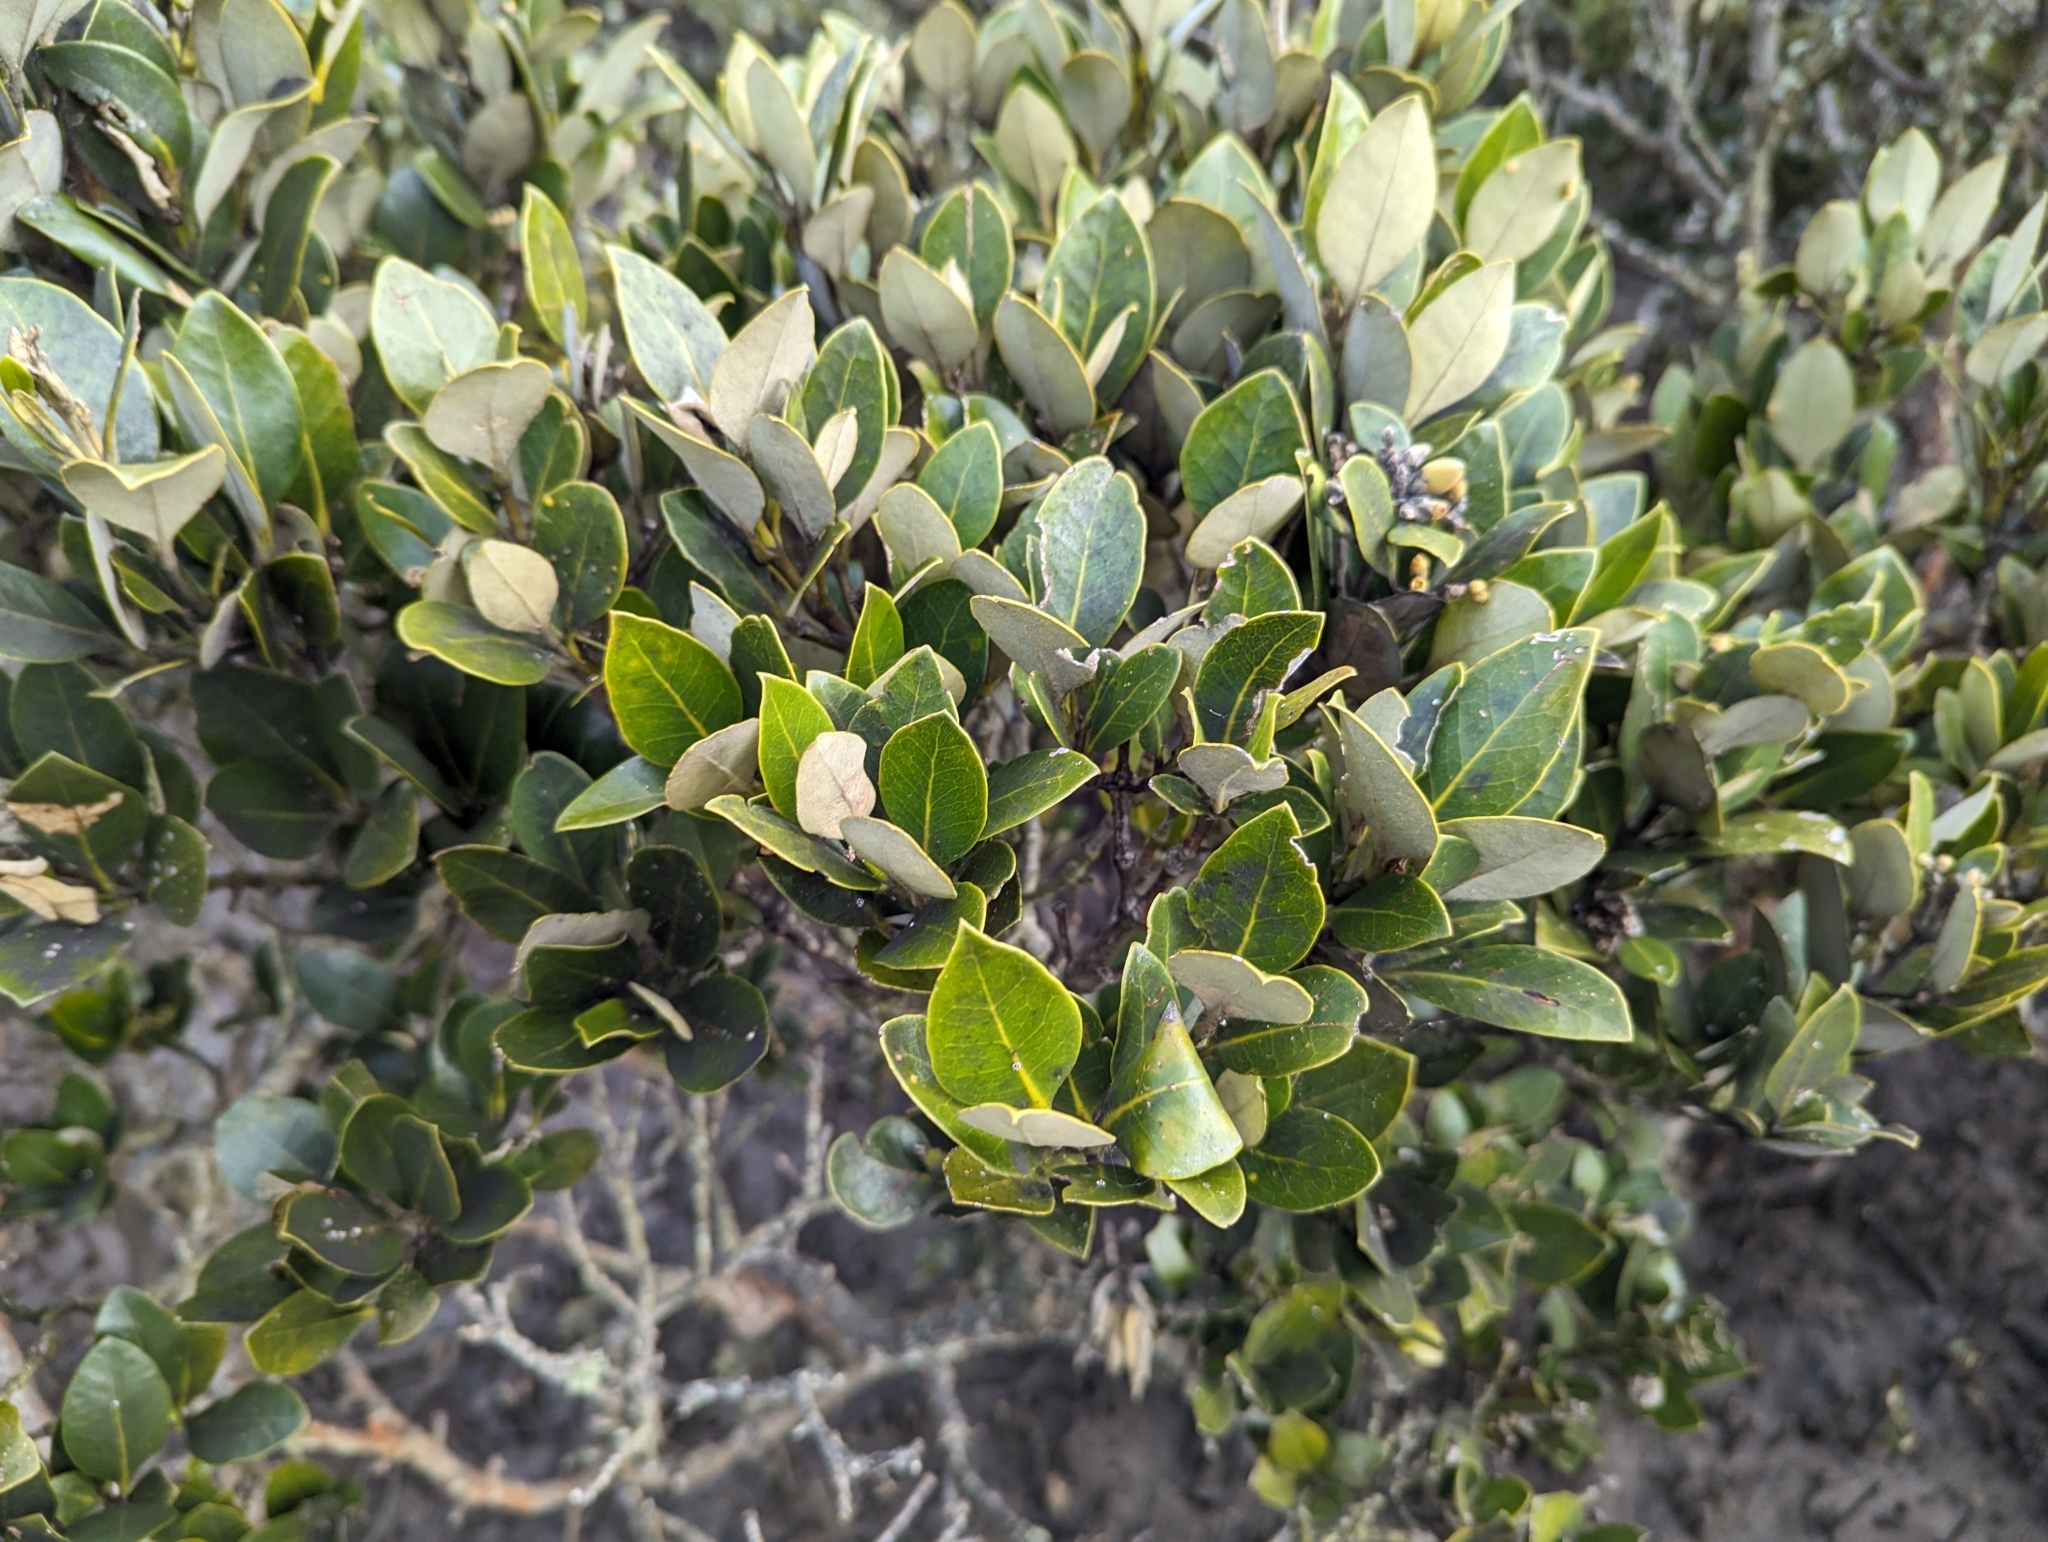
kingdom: Plantae
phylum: Tracheophyta
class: Magnoliopsida
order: Lamiales
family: Acanthaceae
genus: Avicennia
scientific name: Avicennia marina
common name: Gray mangrove
